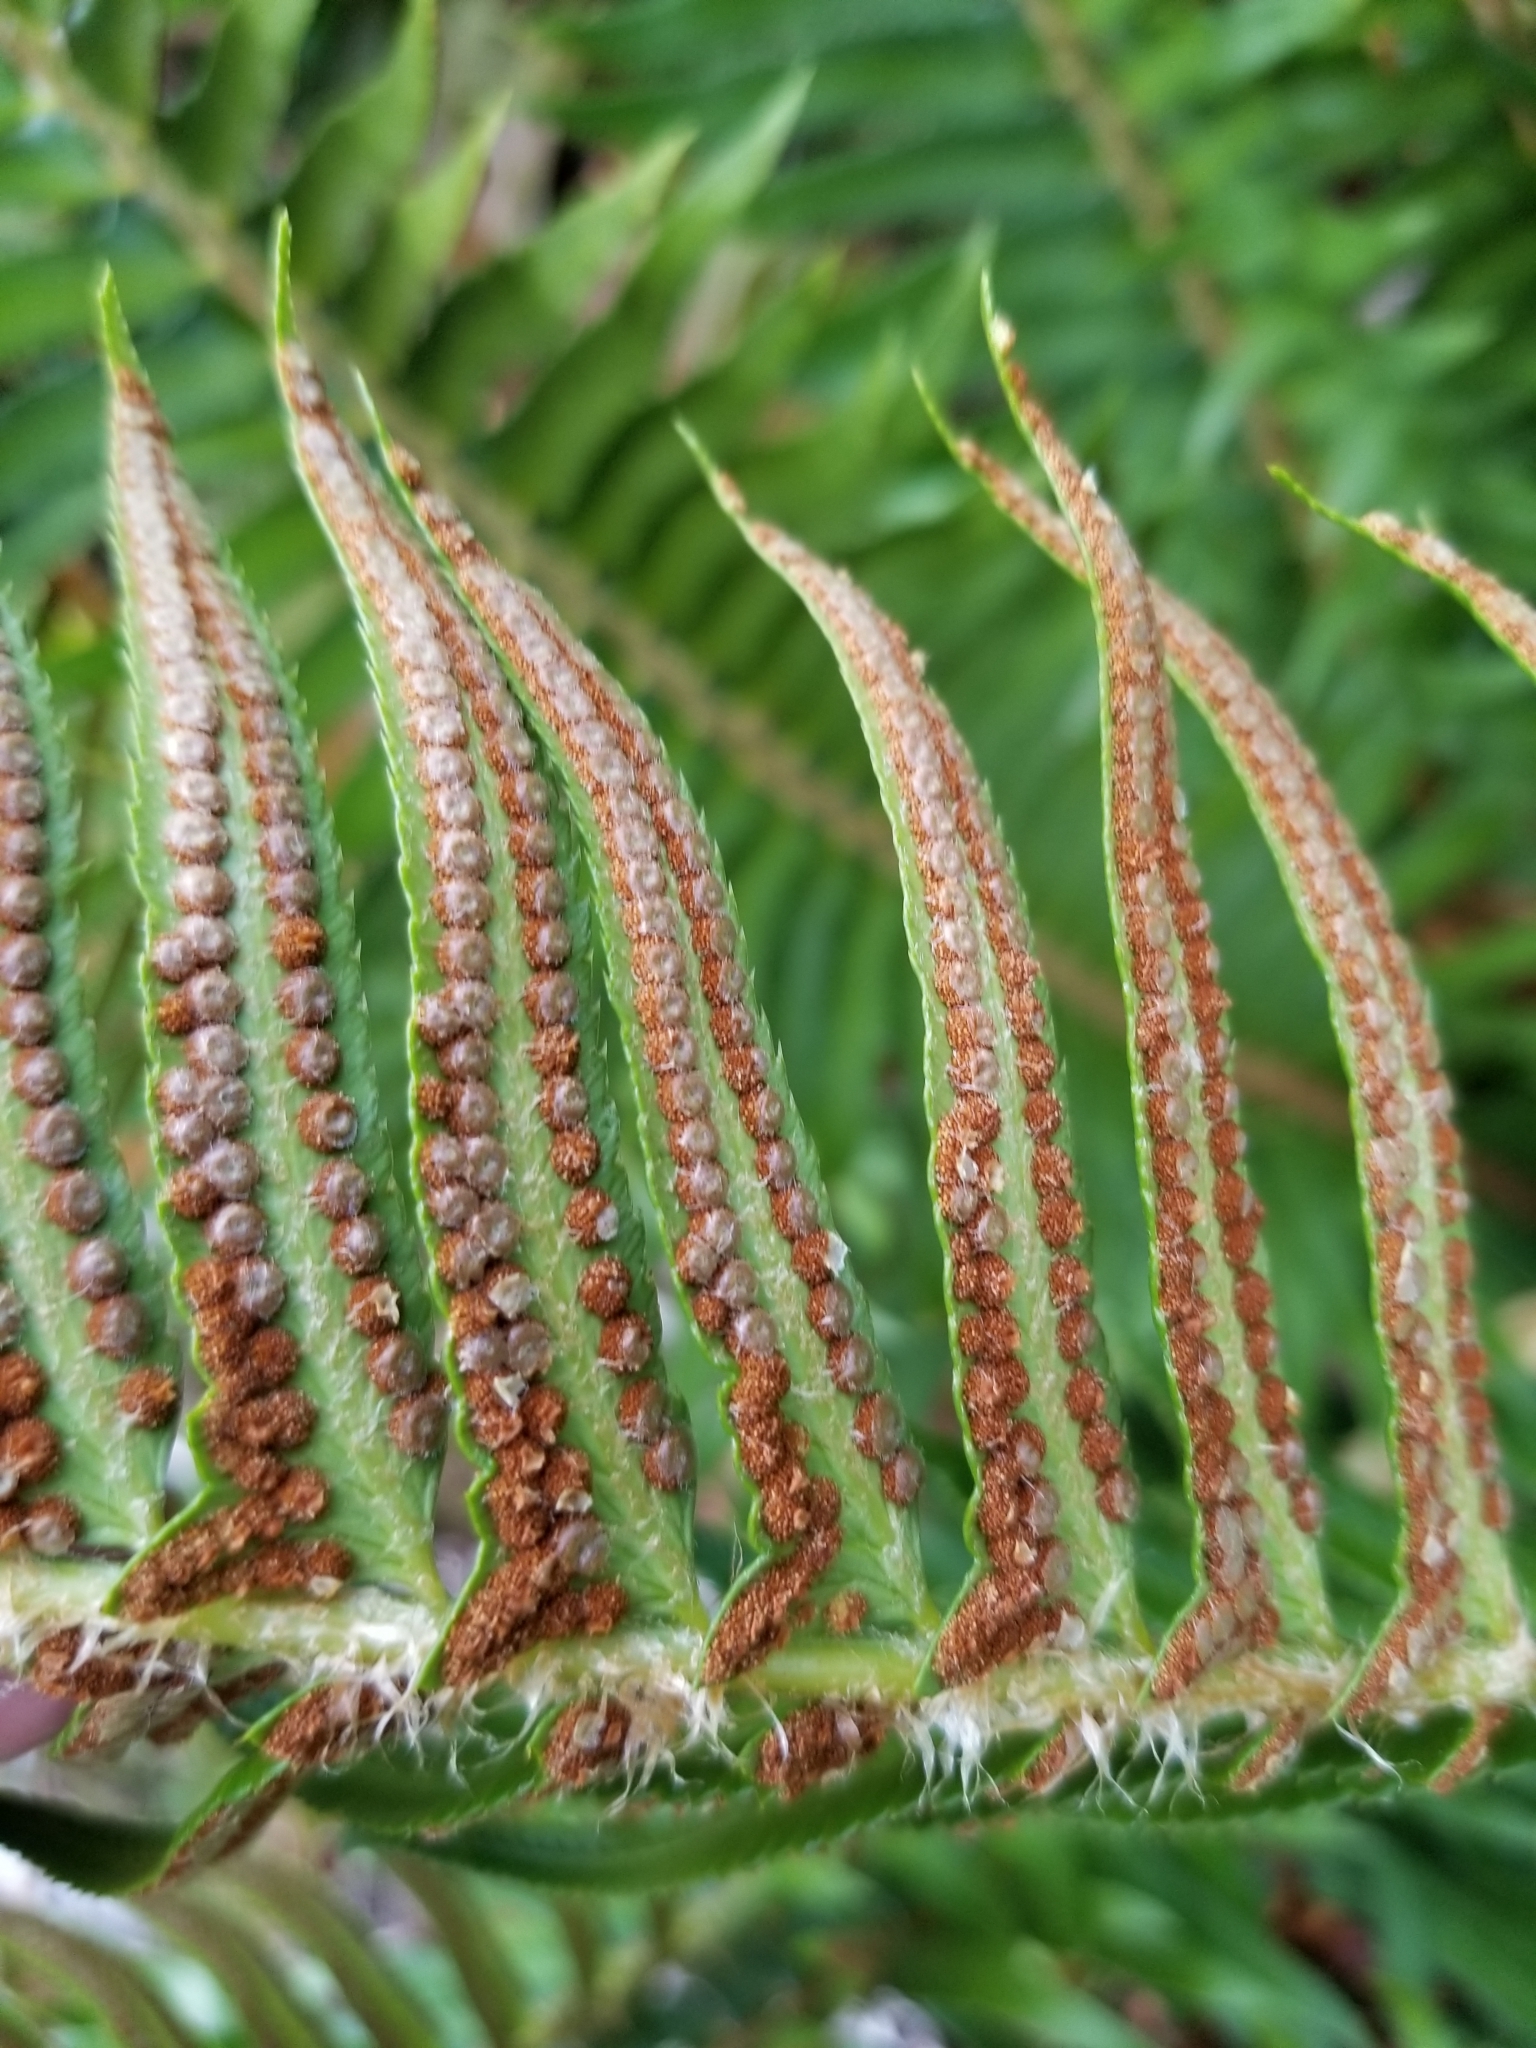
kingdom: Plantae
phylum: Tracheophyta
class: Polypodiopsida
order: Polypodiales
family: Dryopteridaceae
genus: Polystichum
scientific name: Polystichum munitum
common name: Western sword-fern
